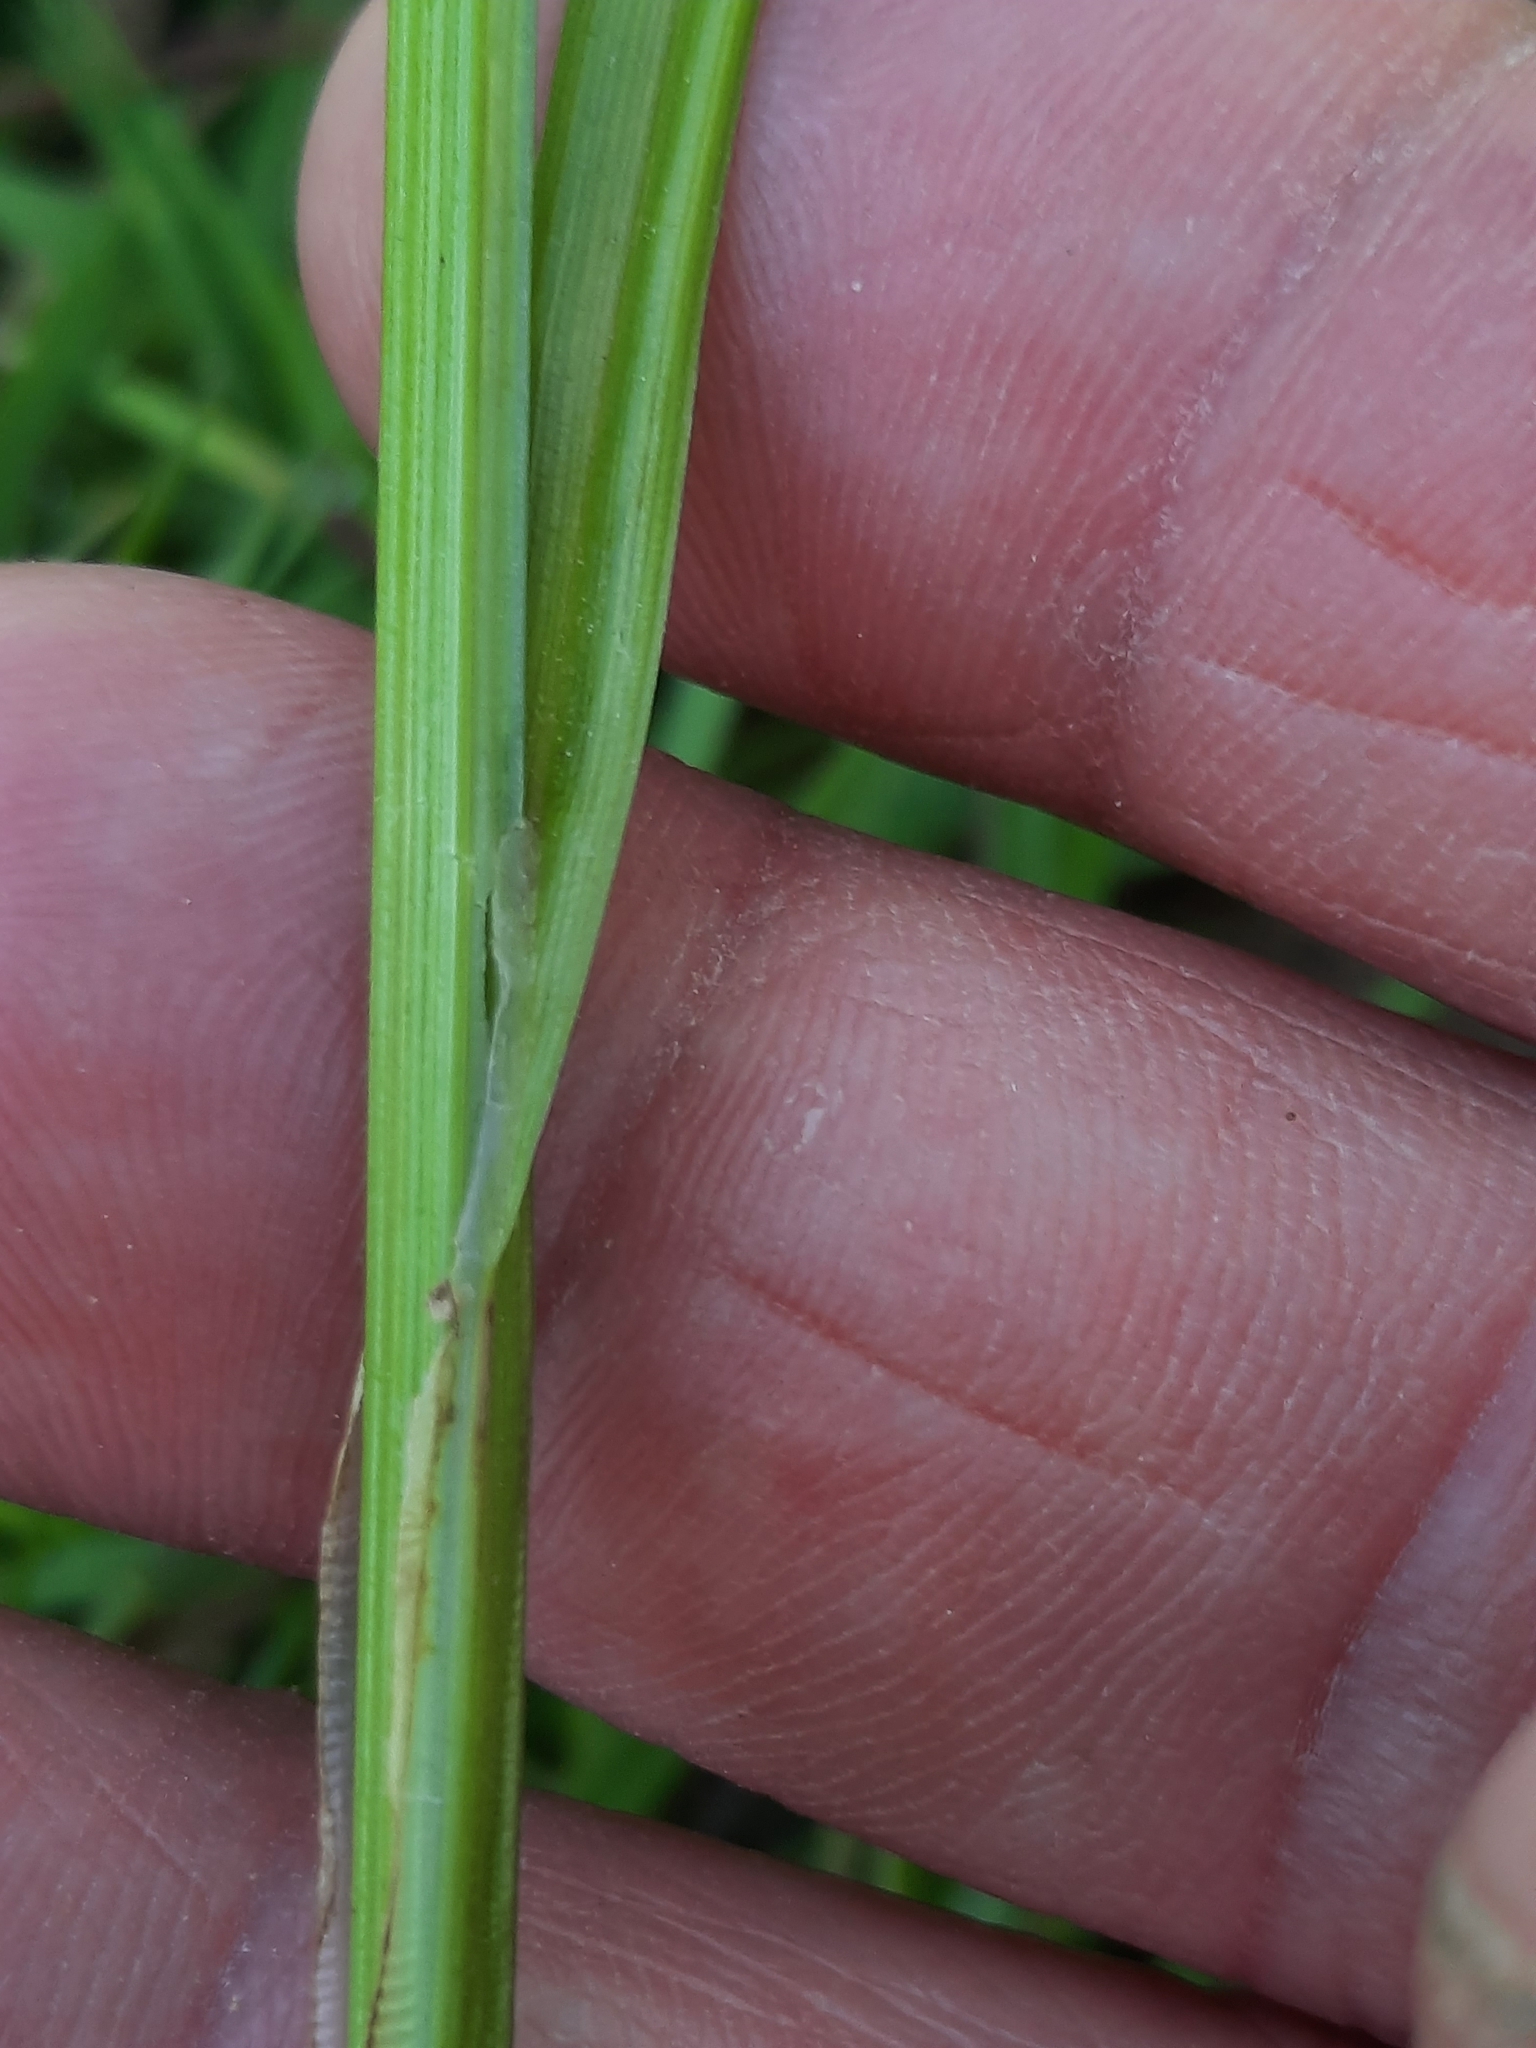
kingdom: Plantae
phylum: Tracheophyta
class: Liliopsida
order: Poales
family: Cyperaceae
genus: Carex
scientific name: Carex stipata
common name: Awl-fruited sedge
